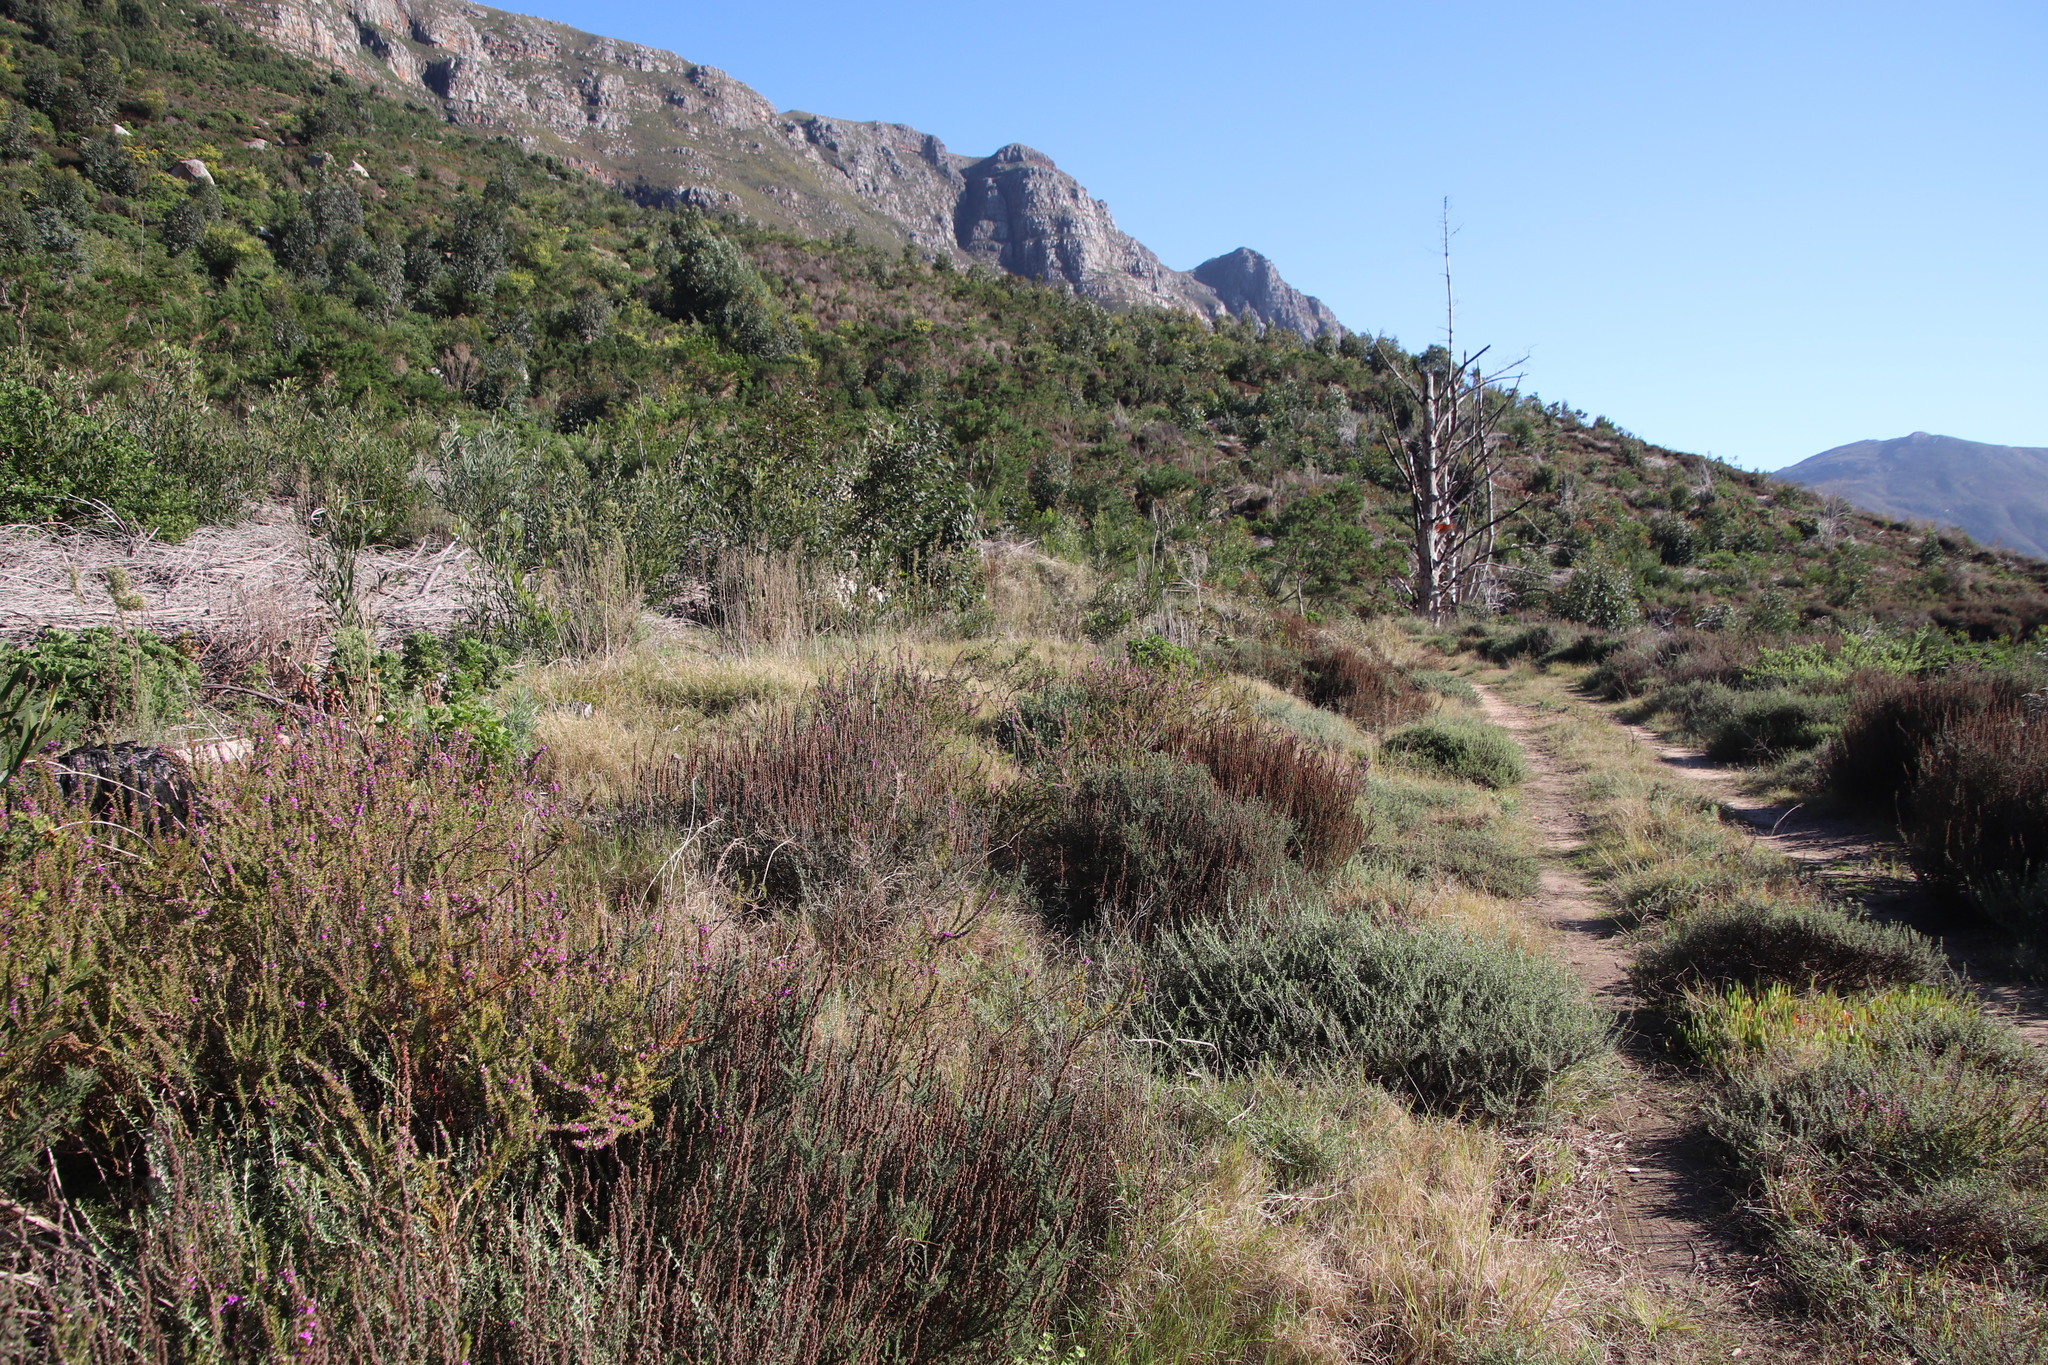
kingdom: Plantae
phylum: Tracheophyta
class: Magnoliopsida
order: Asterales
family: Asteraceae
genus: Seriphium
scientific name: Seriphium cinereum
